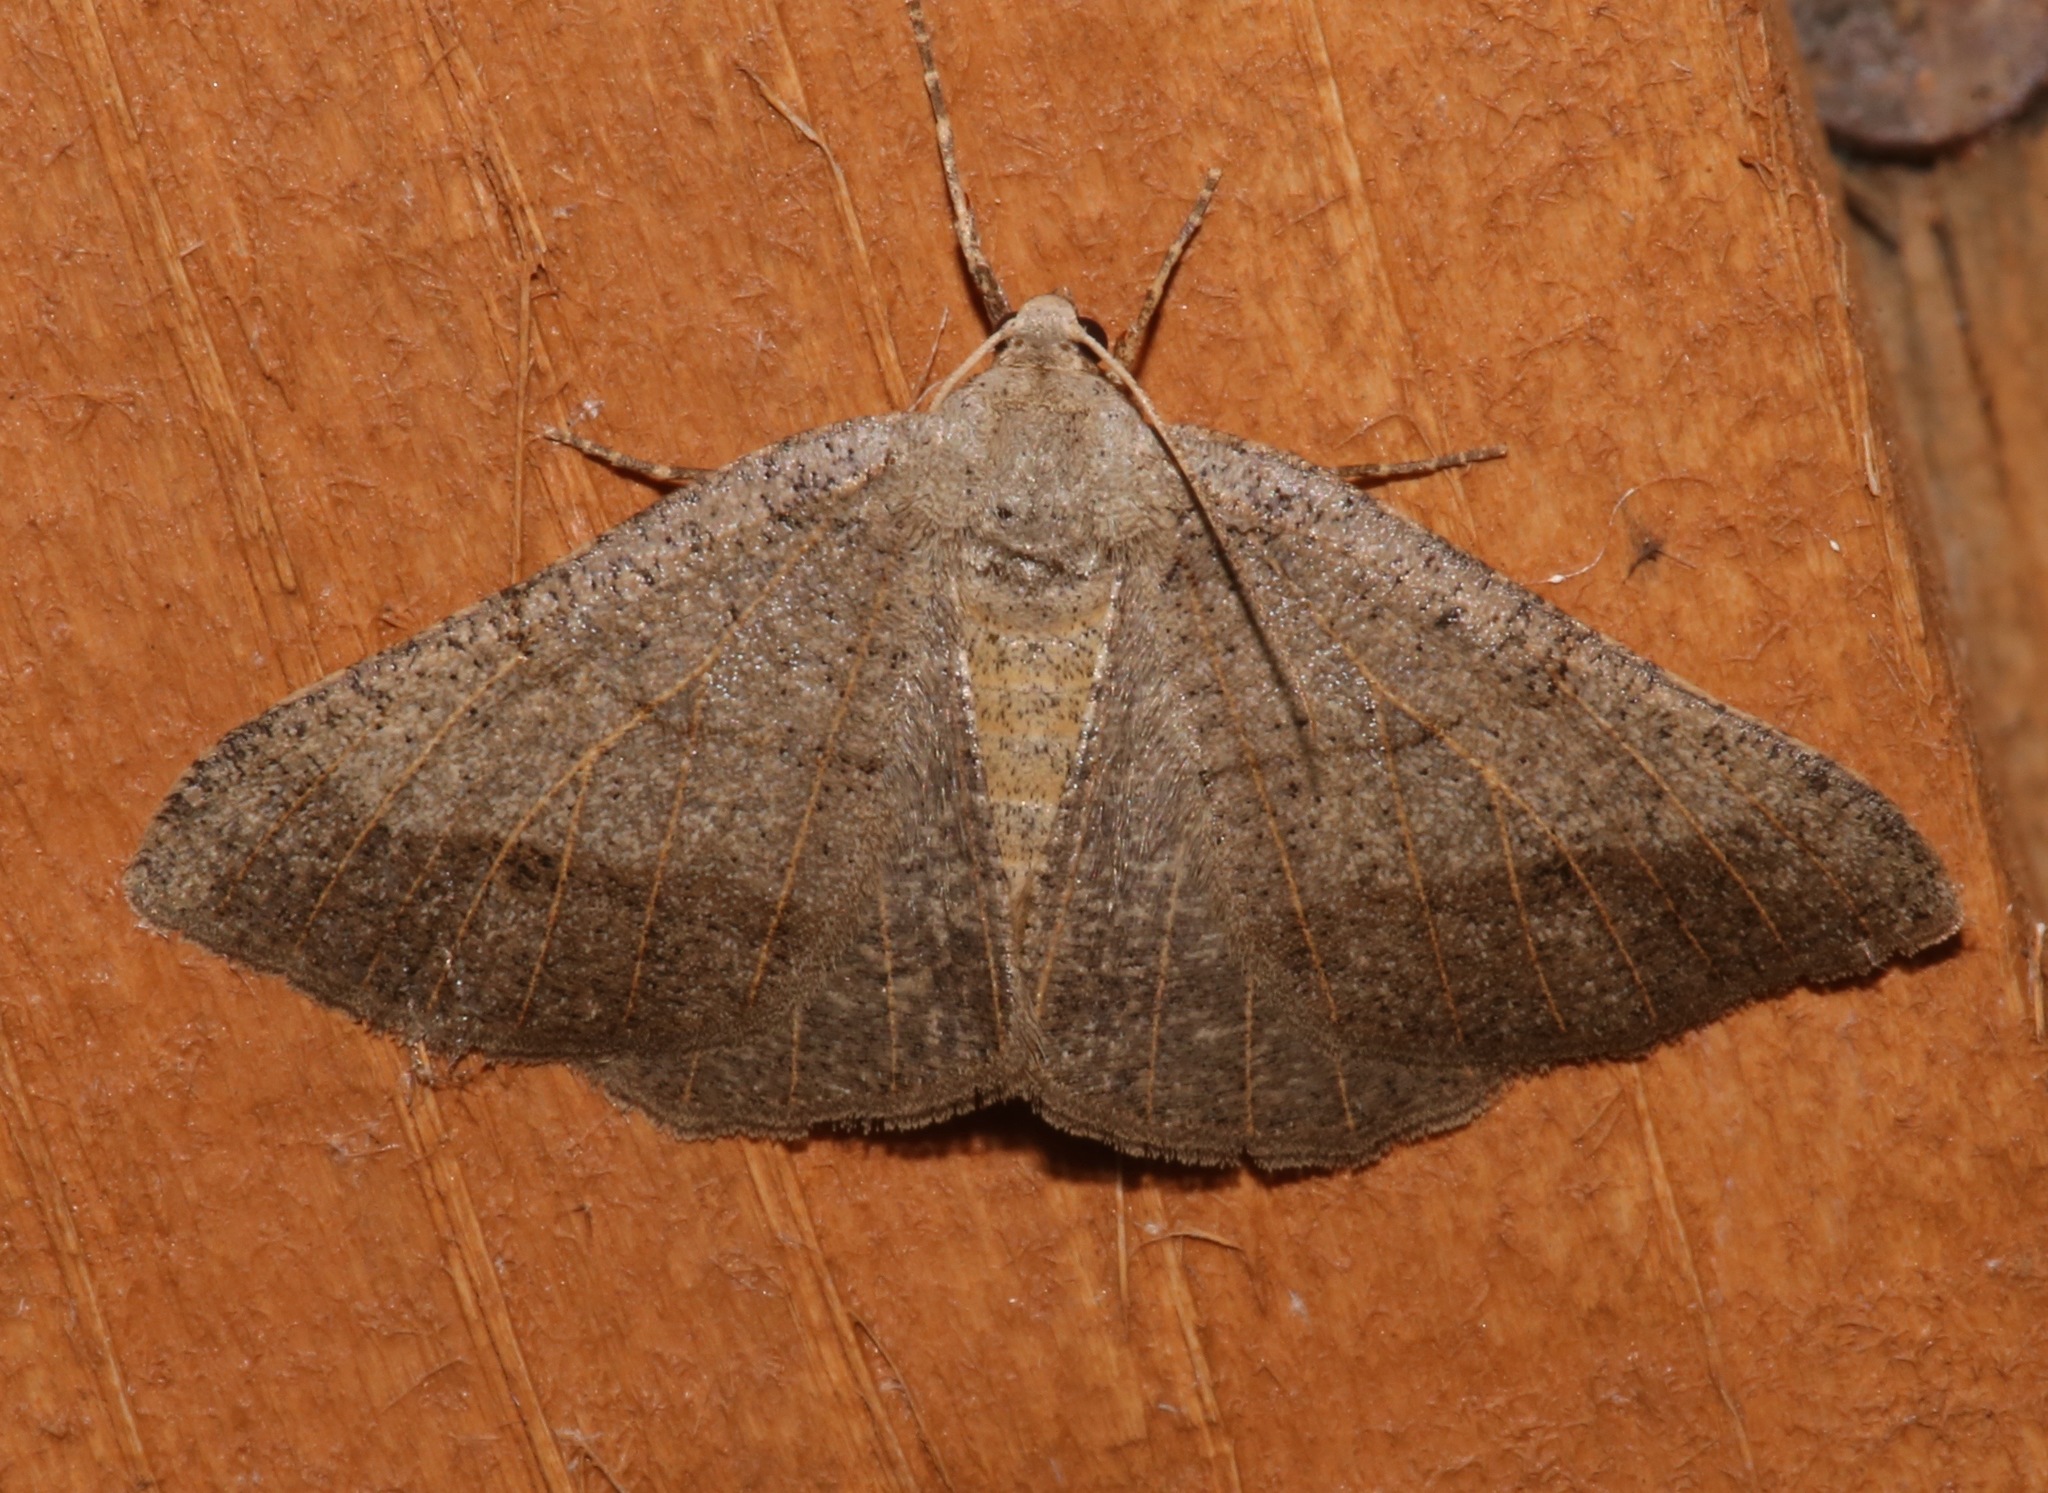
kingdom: Animalia
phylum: Arthropoda
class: Insecta
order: Lepidoptera
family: Geometridae
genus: Isturgia
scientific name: Isturgia dislocaria
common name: Pale-viened enconista
